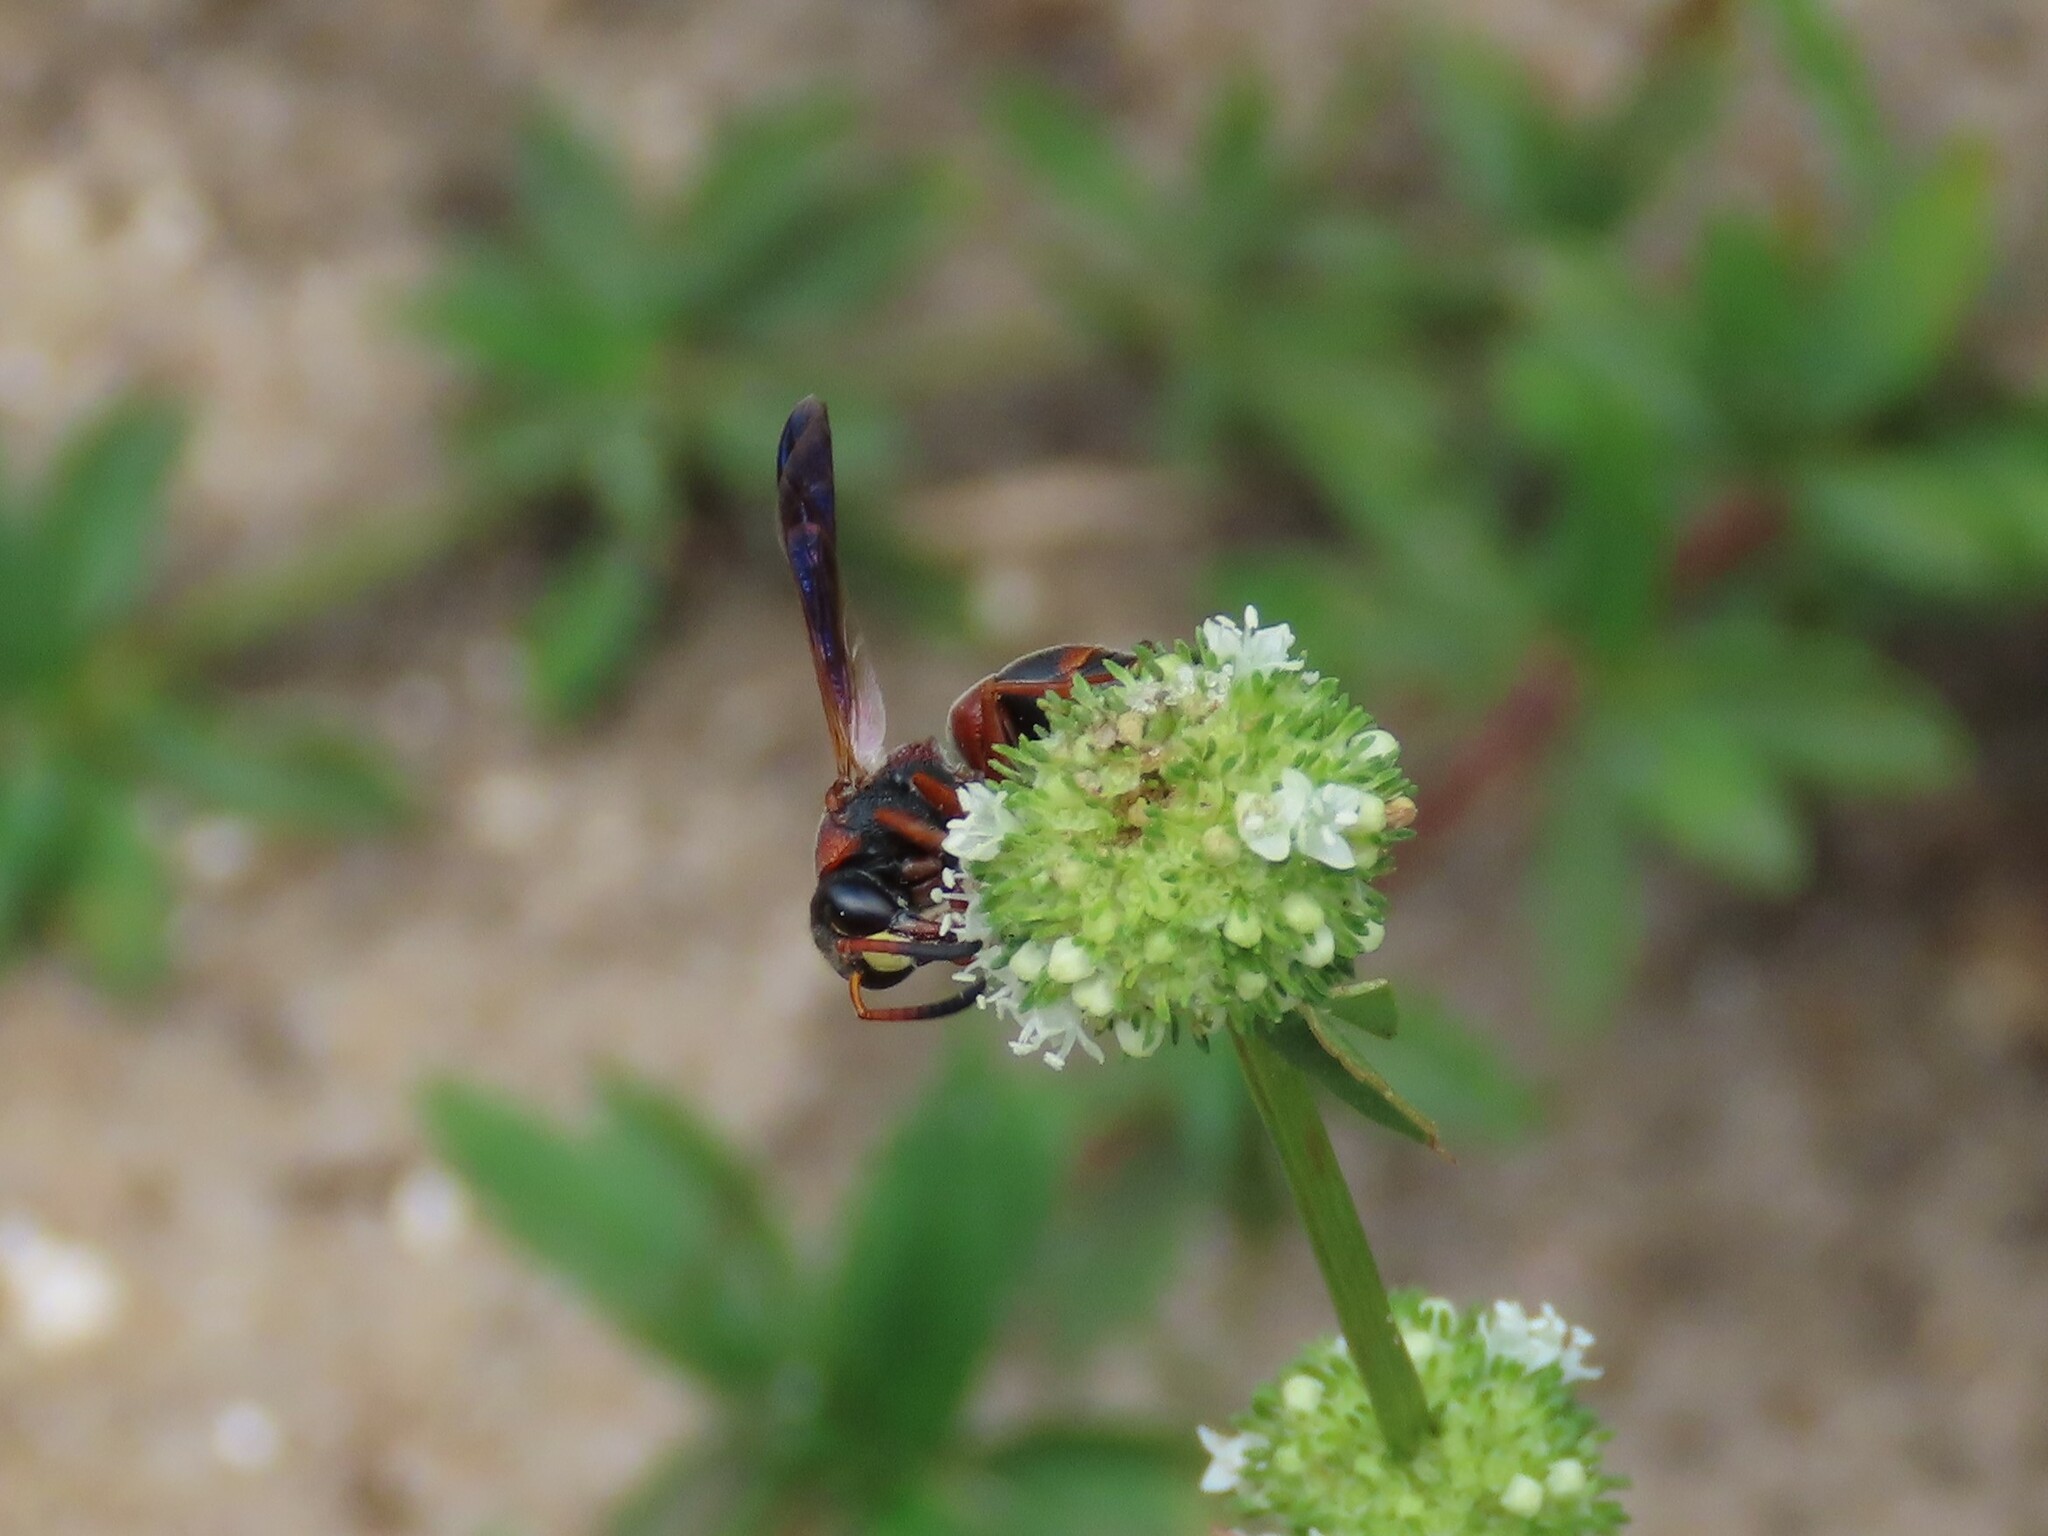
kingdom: Animalia
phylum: Arthropoda
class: Insecta
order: Hymenoptera
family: Eumenidae
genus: Pachodynerus
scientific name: Pachodynerus erynnis
